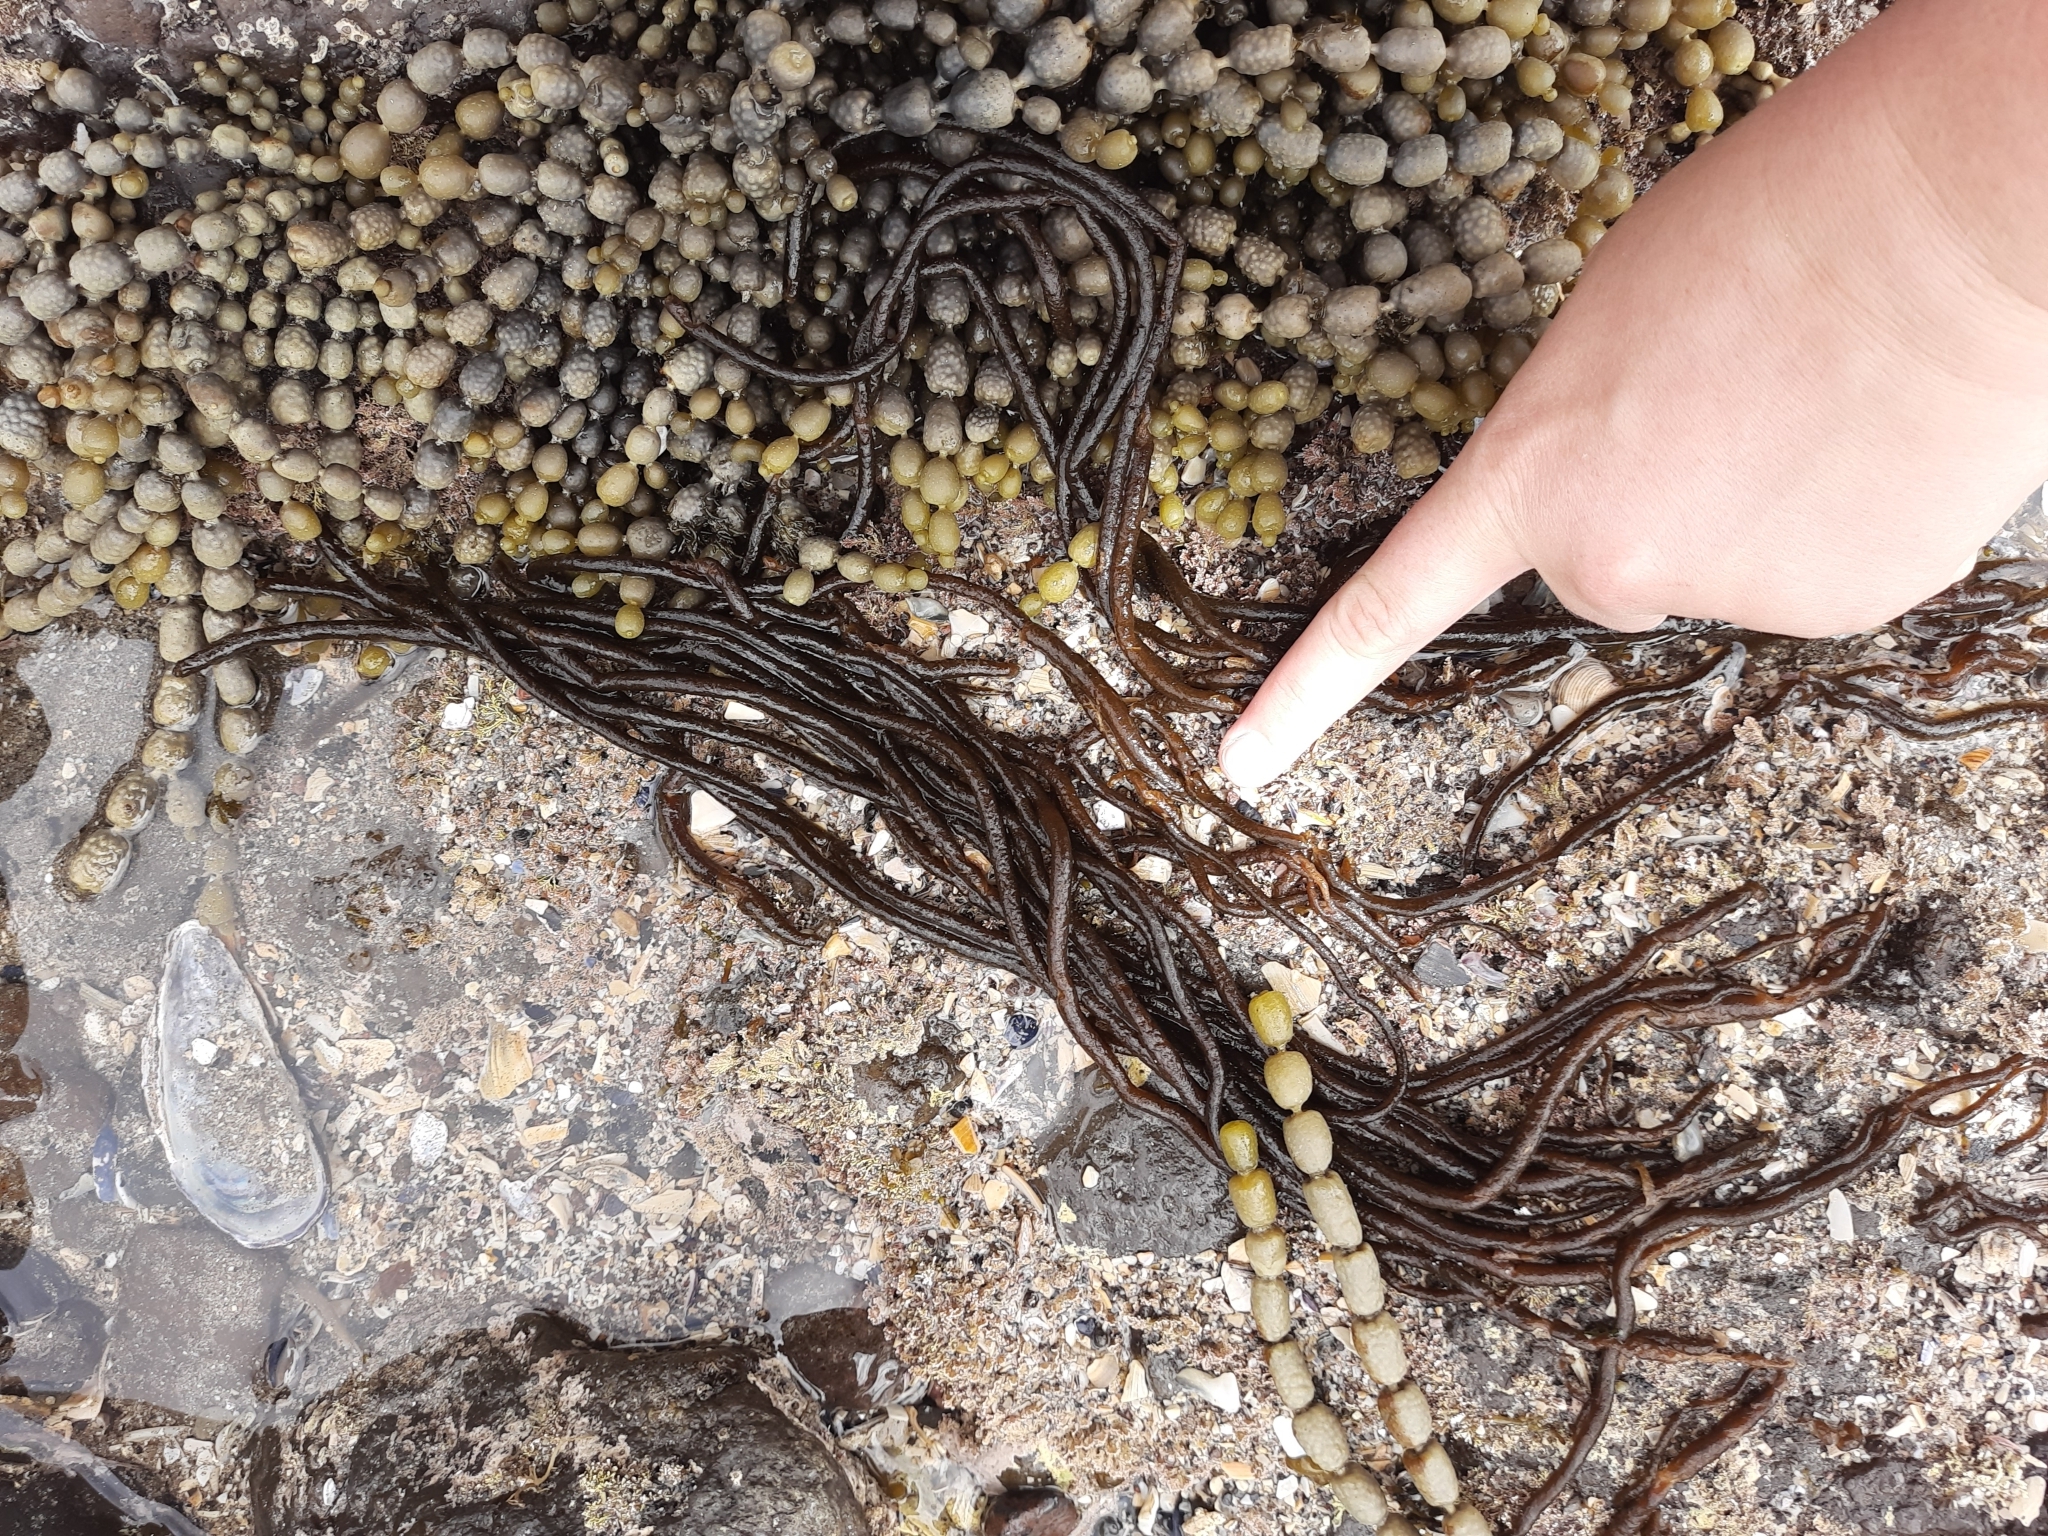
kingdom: Plantae
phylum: Rhodophyta
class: Florideophyceae
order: Nemaliales
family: Nemaliaceae
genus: Nemalion
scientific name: Nemalion elminthoides
